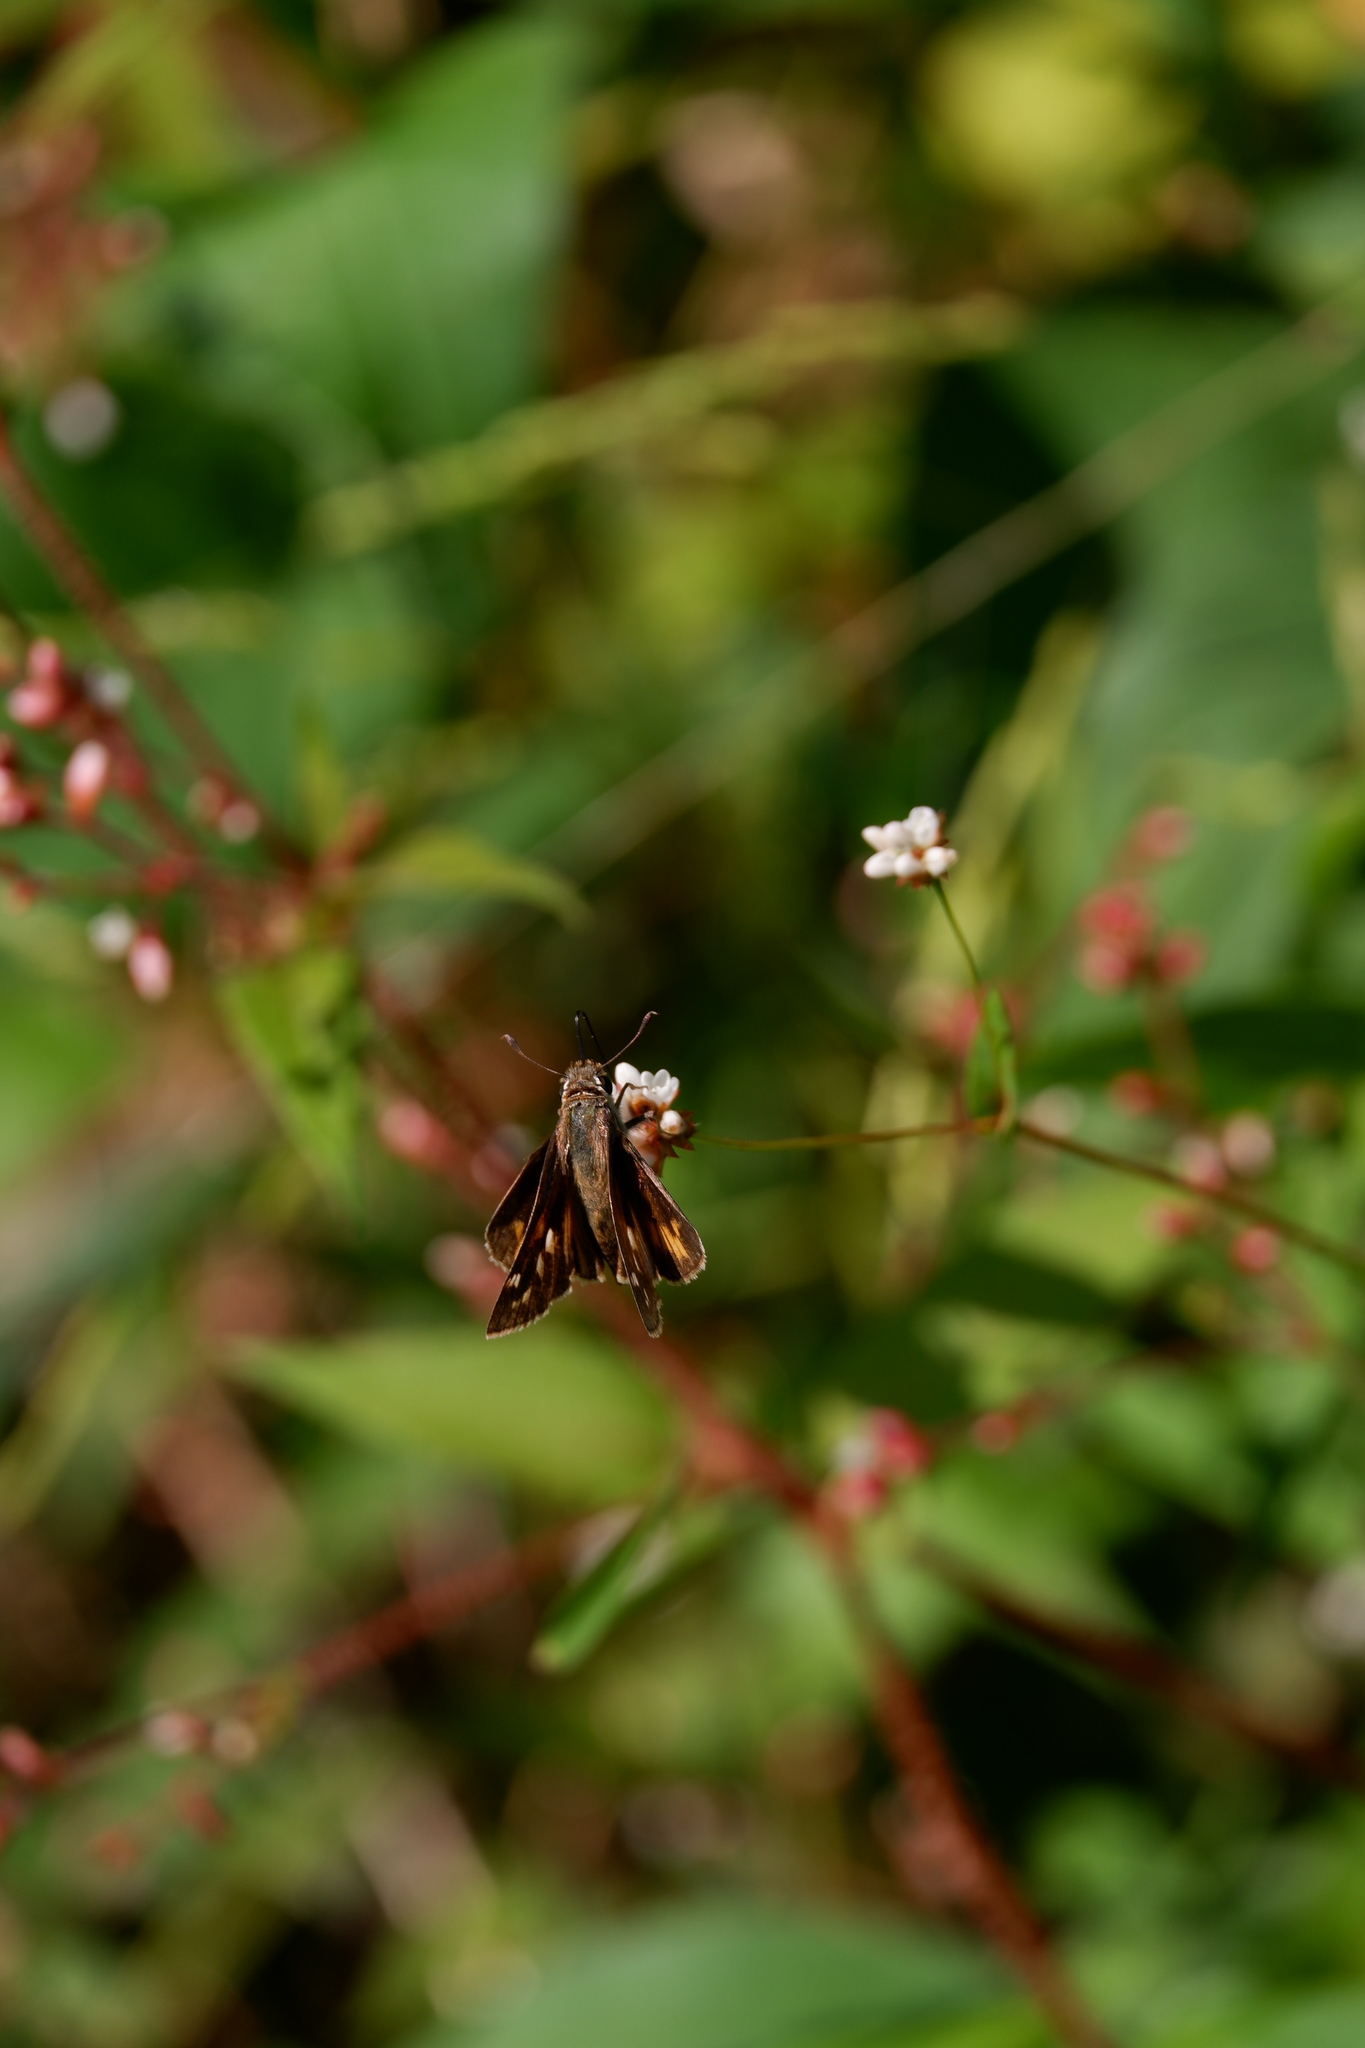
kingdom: Animalia
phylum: Arthropoda
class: Insecta
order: Lepidoptera
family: Hesperiidae
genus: Atalopedes
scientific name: Atalopedes
